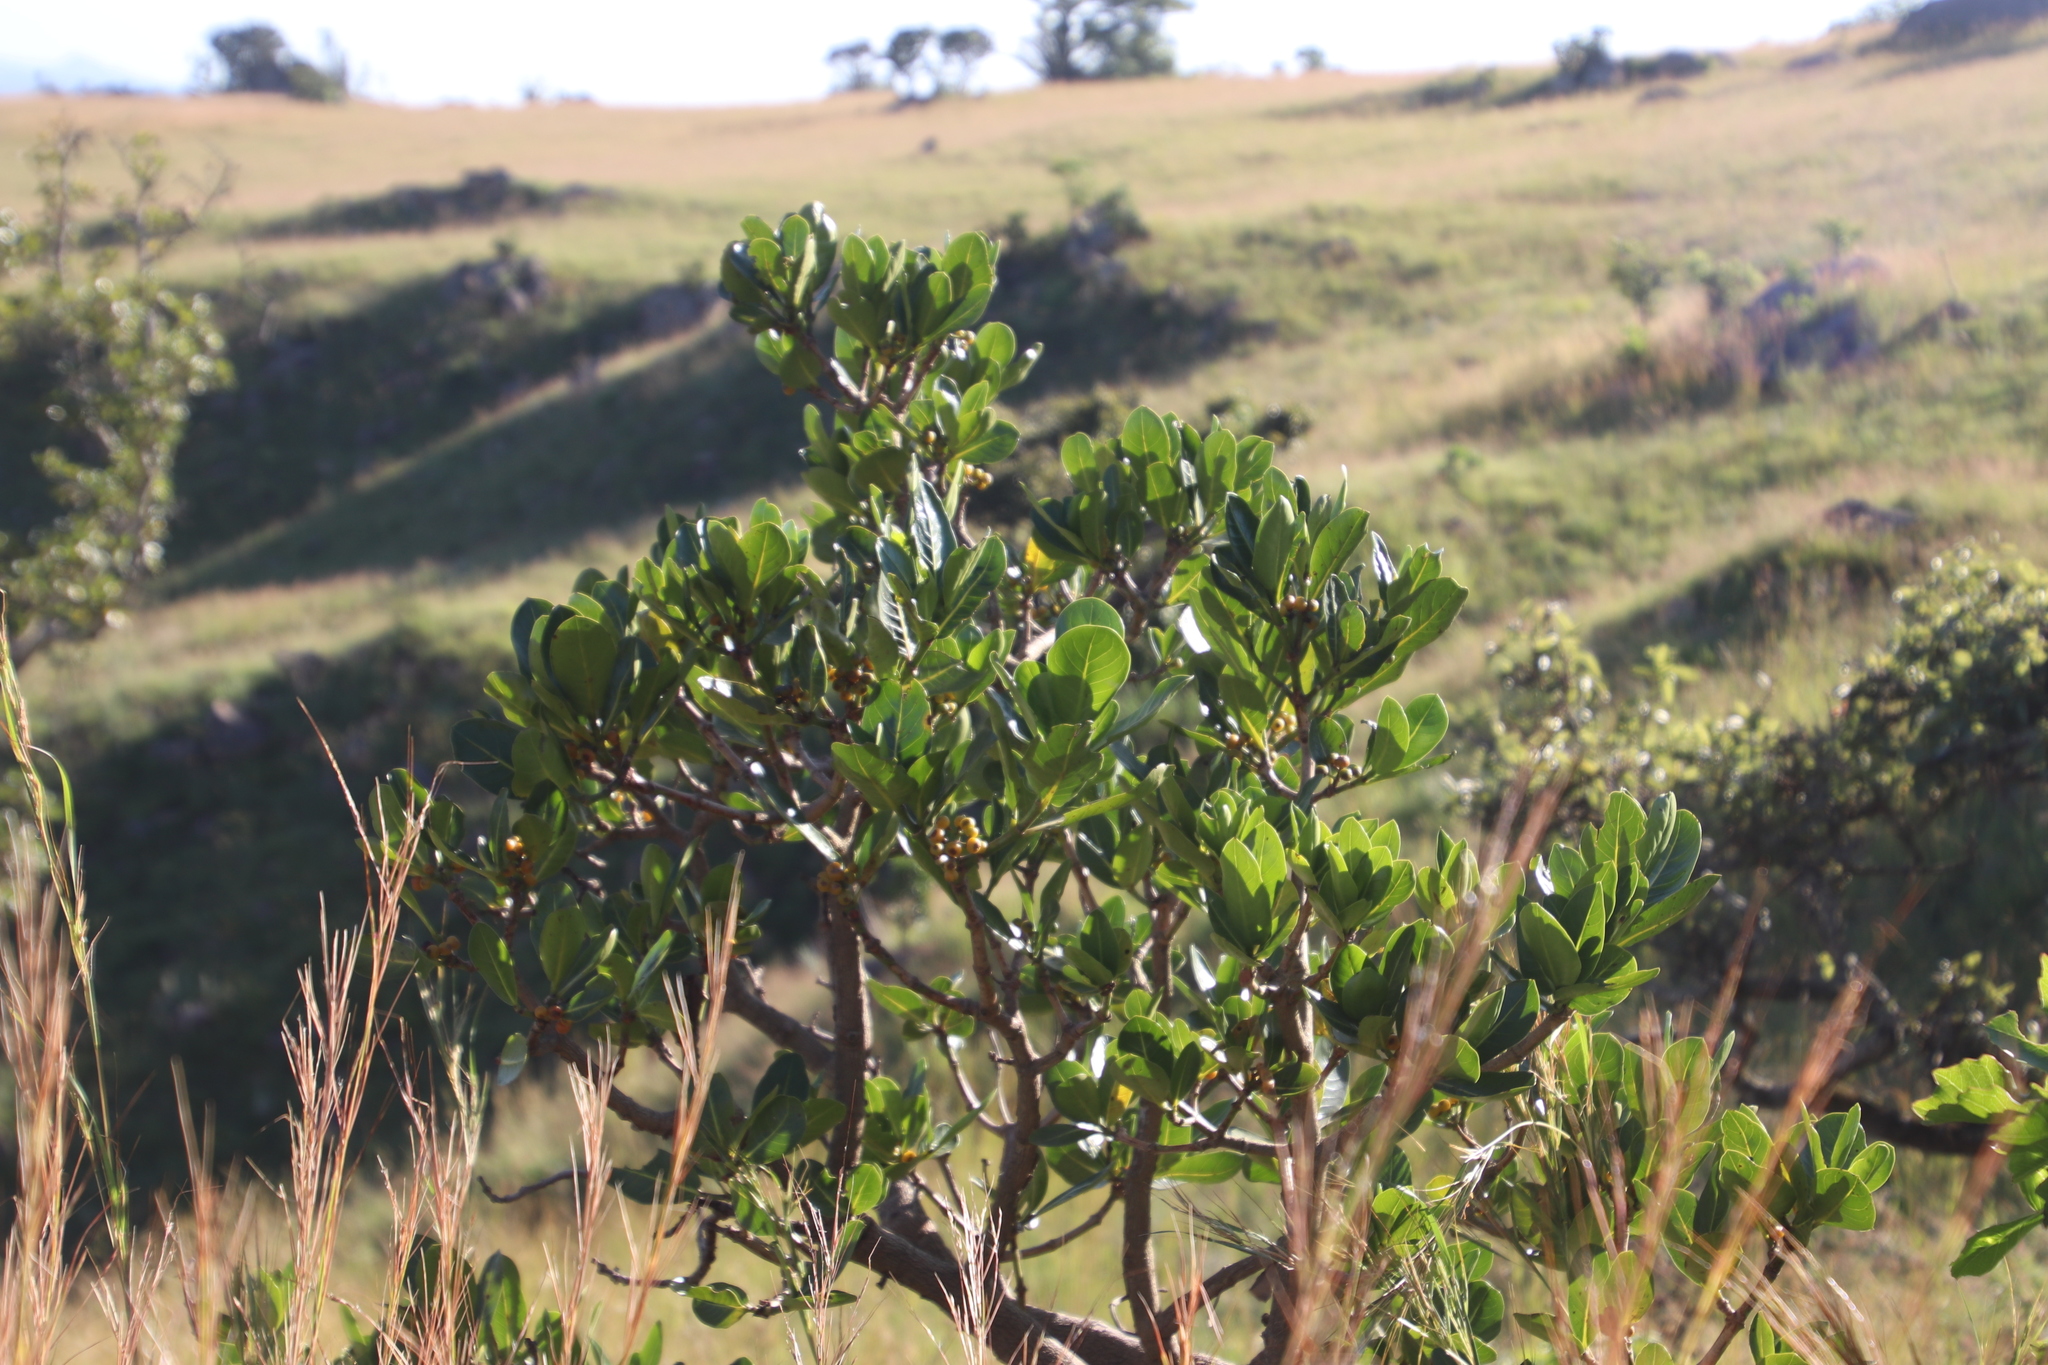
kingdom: Plantae
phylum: Tracheophyta
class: Magnoliopsida
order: Gentianales
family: Rubiaceae
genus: Psychotria
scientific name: Psychotria
